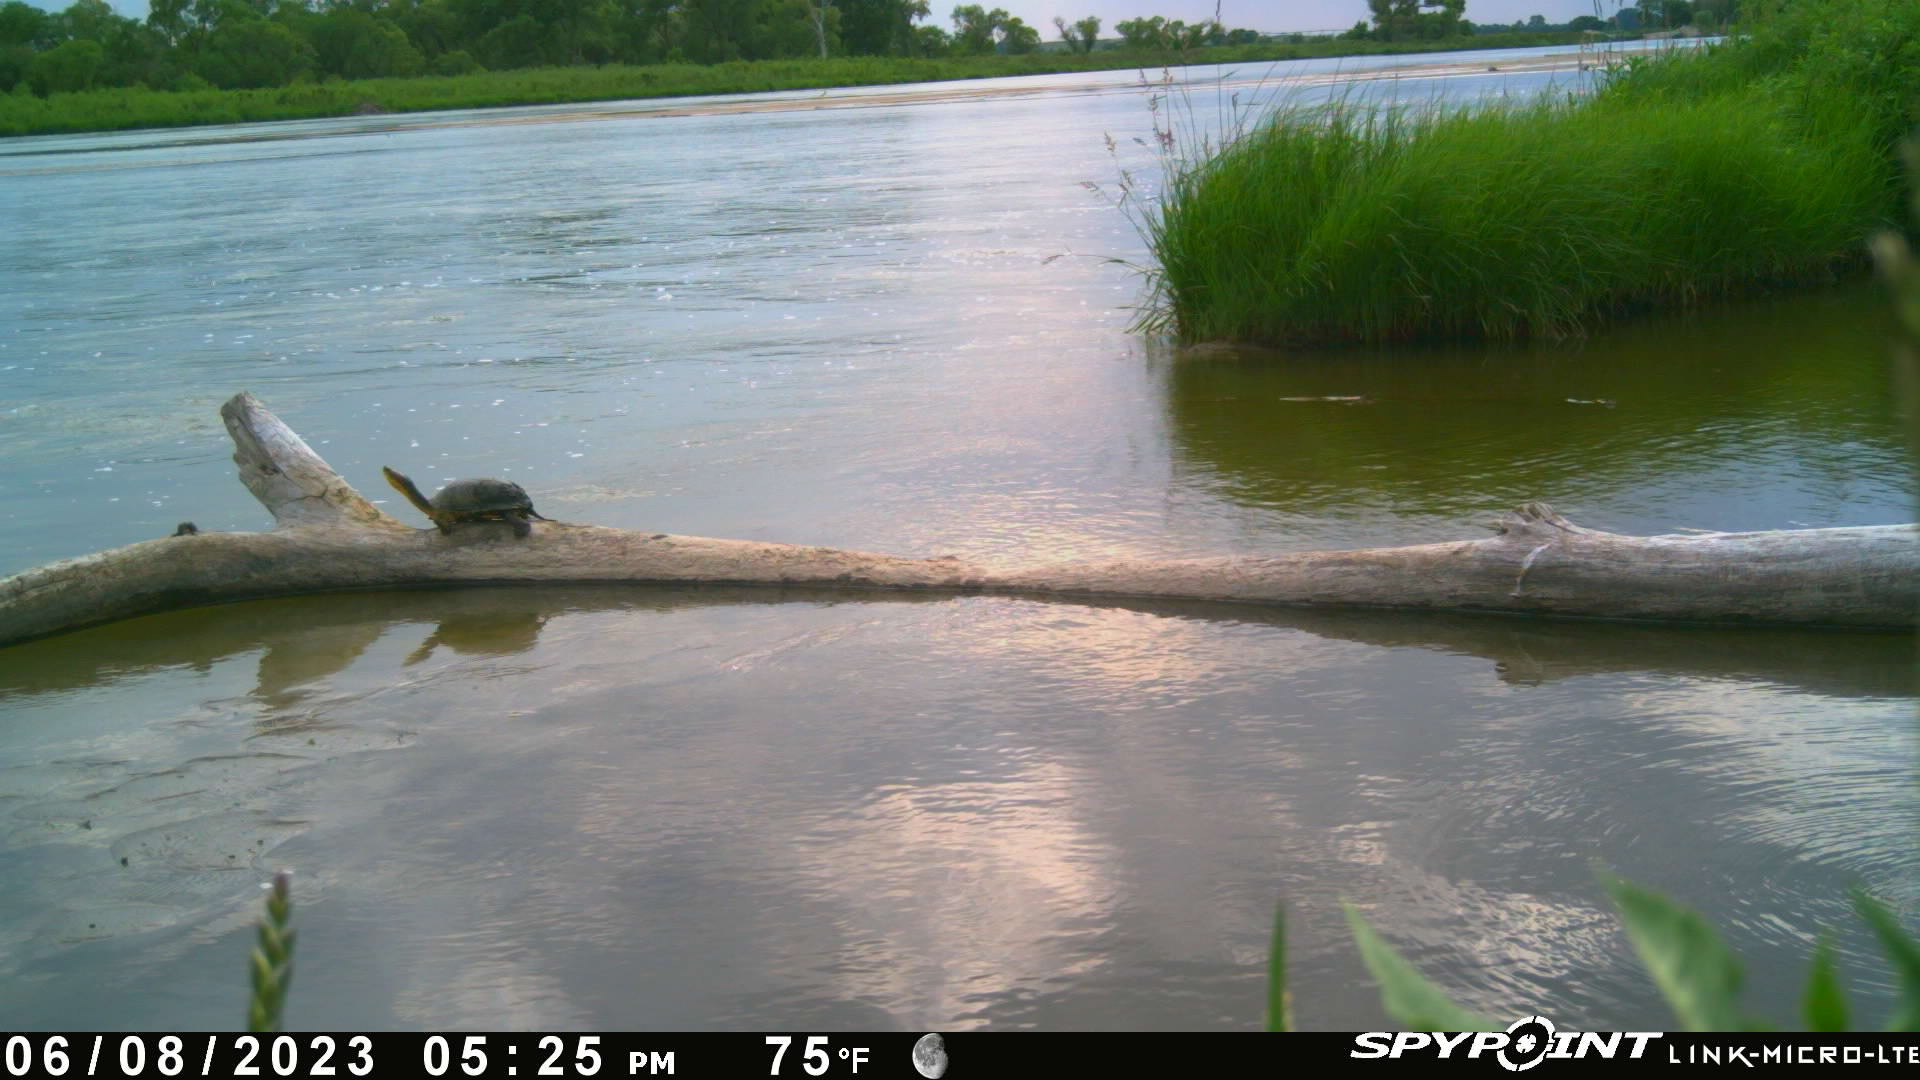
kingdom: Animalia
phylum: Chordata
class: Testudines
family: Emydidae
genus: Emys
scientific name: Emys blandingii
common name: Blanding's turtle
